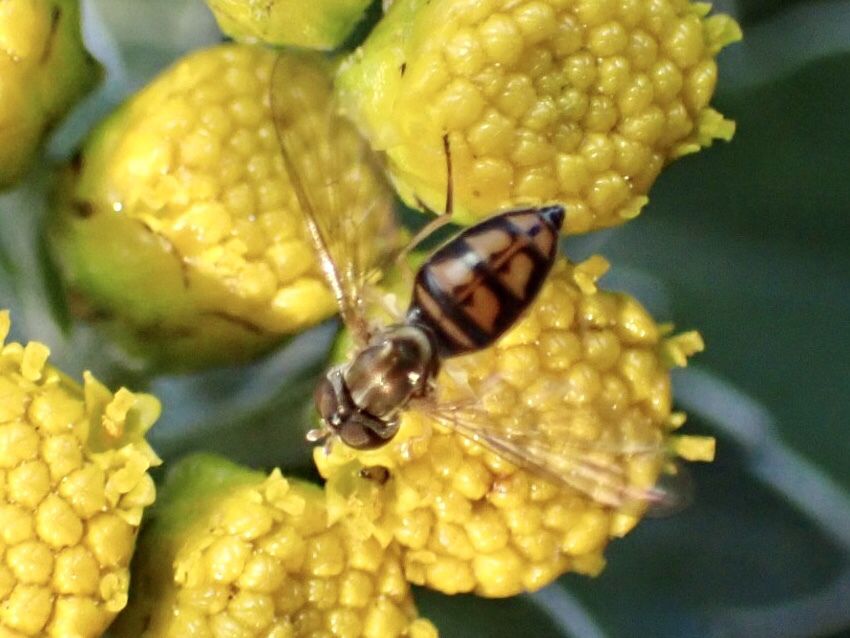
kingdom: Animalia
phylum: Arthropoda
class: Insecta
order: Diptera
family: Syrphidae
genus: Toxomerus
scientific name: Toxomerus marginatus
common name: Syrphid fly
